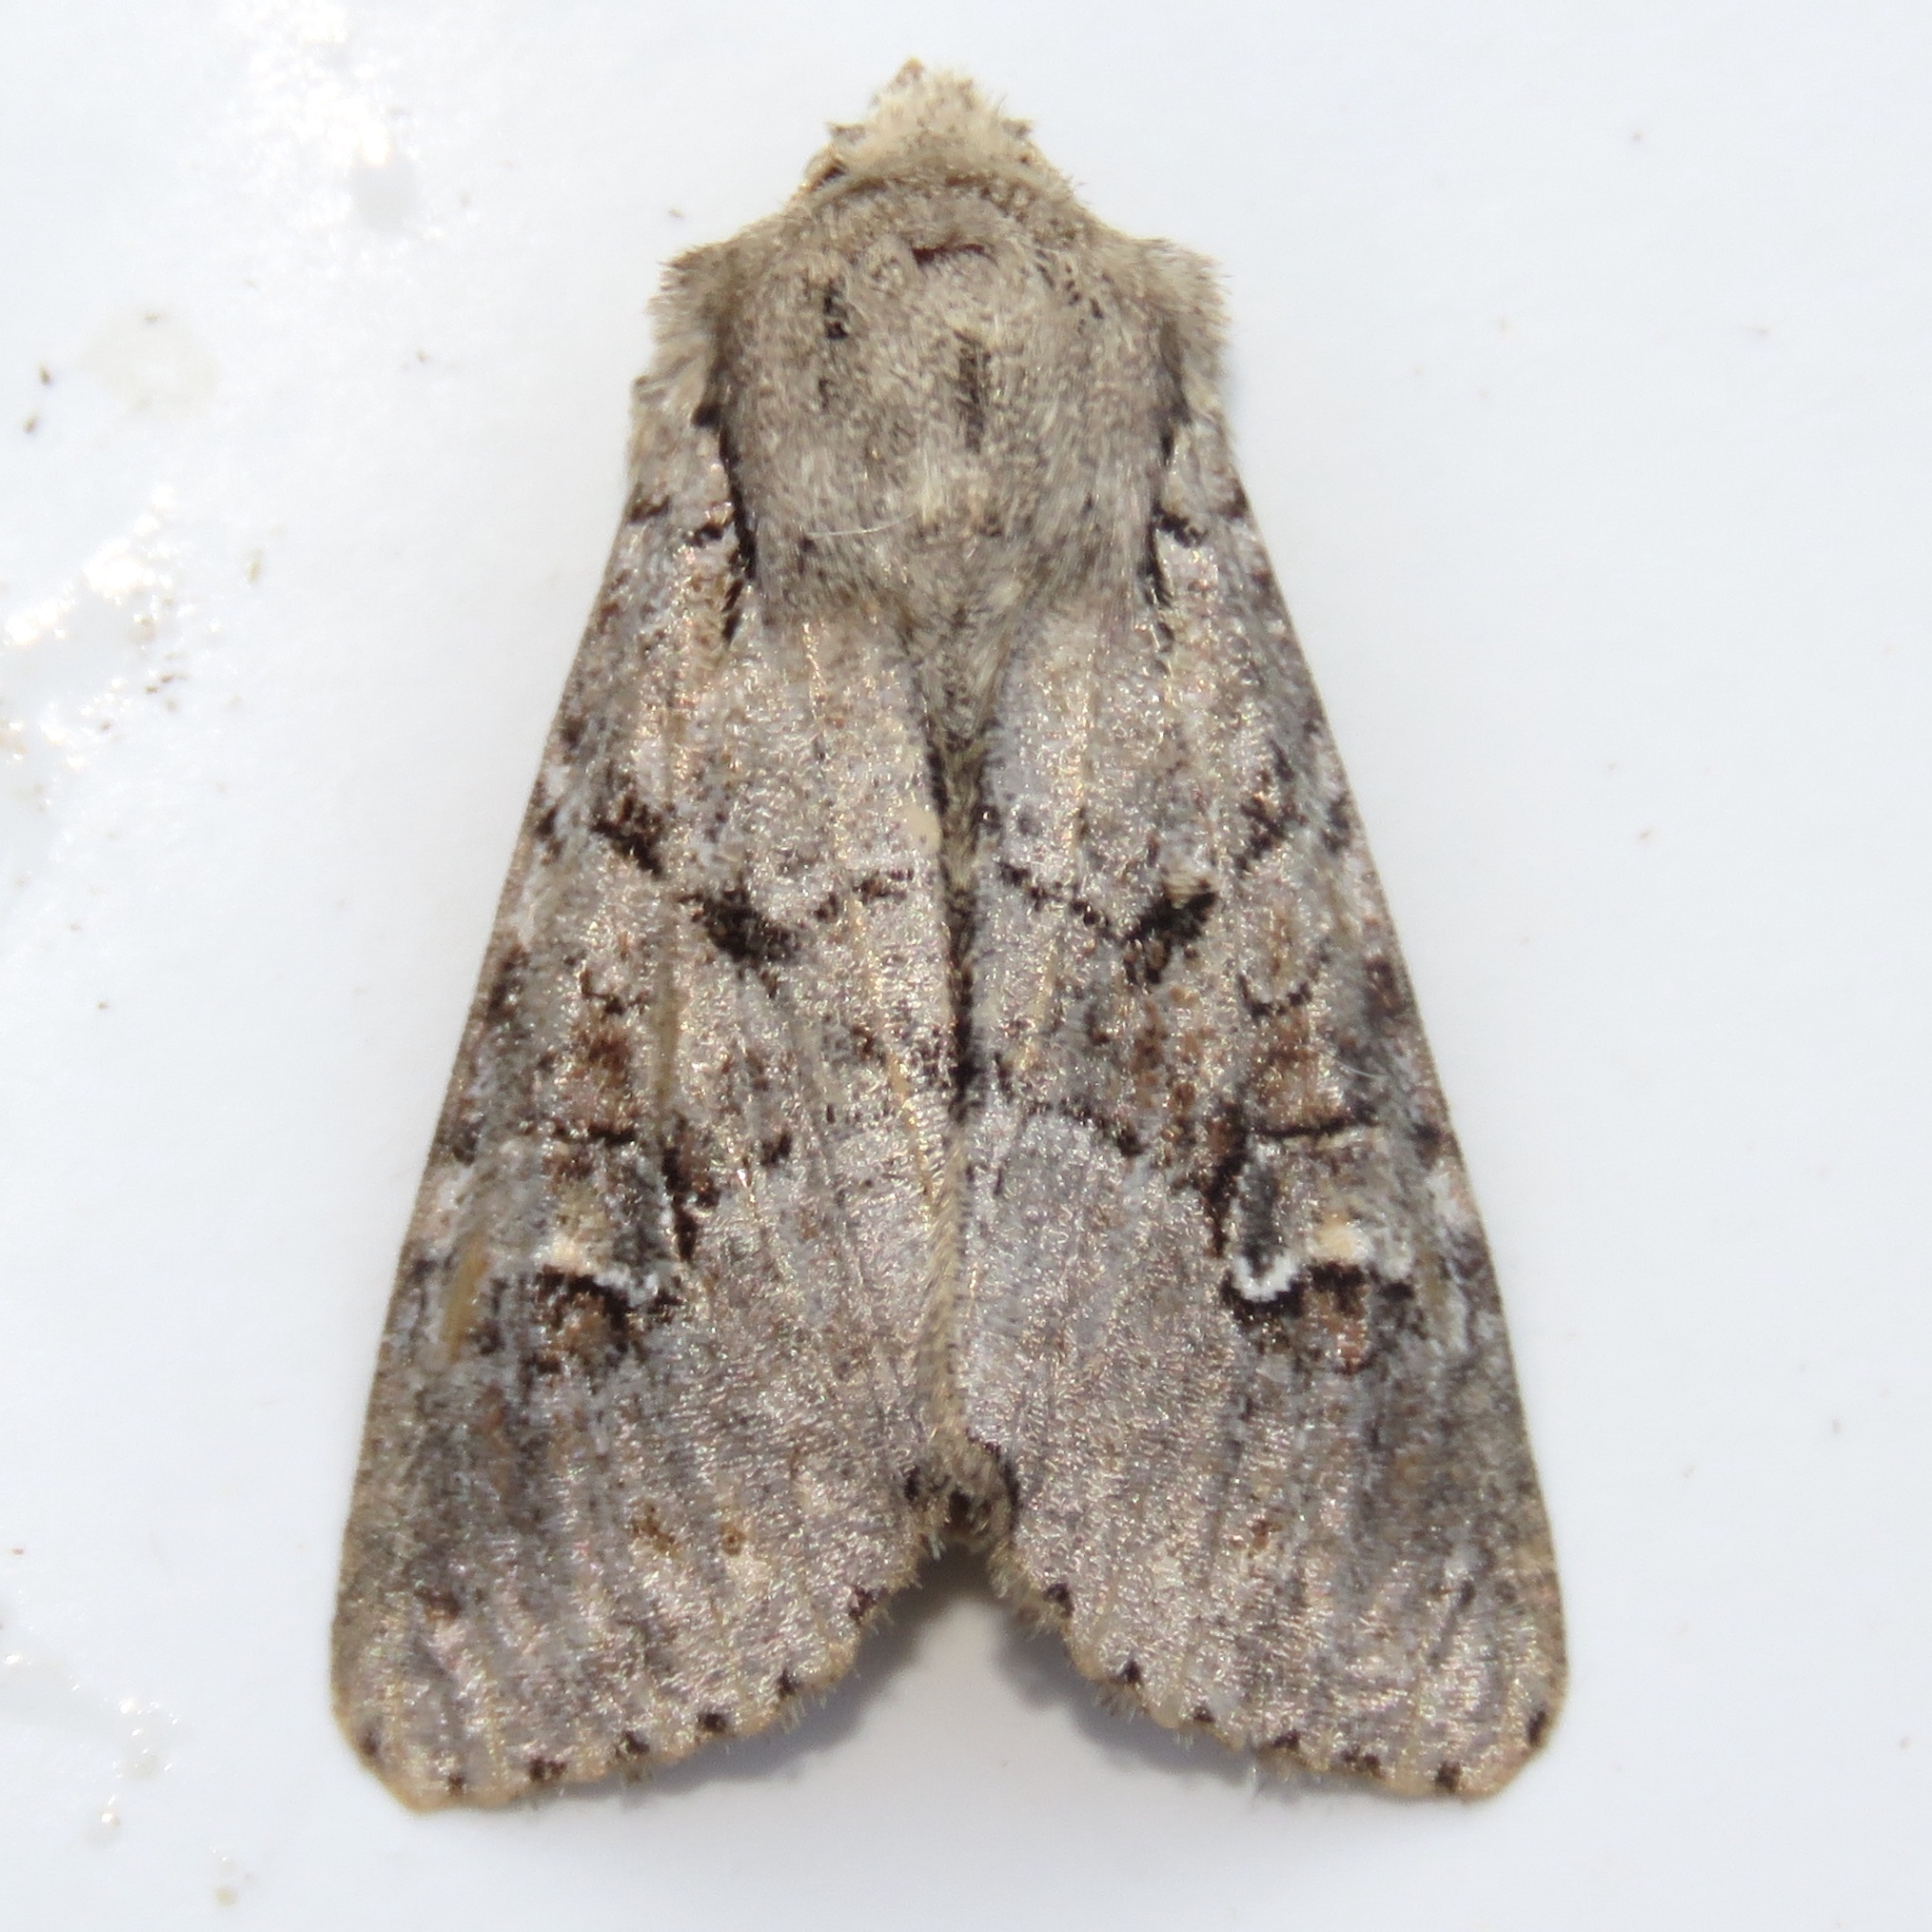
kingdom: Animalia
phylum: Arthropoda
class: Insecta
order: Lepidoptera
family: Noctuidae
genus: Apamea
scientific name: Apamea sordens
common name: Rustic shoulder-knot
